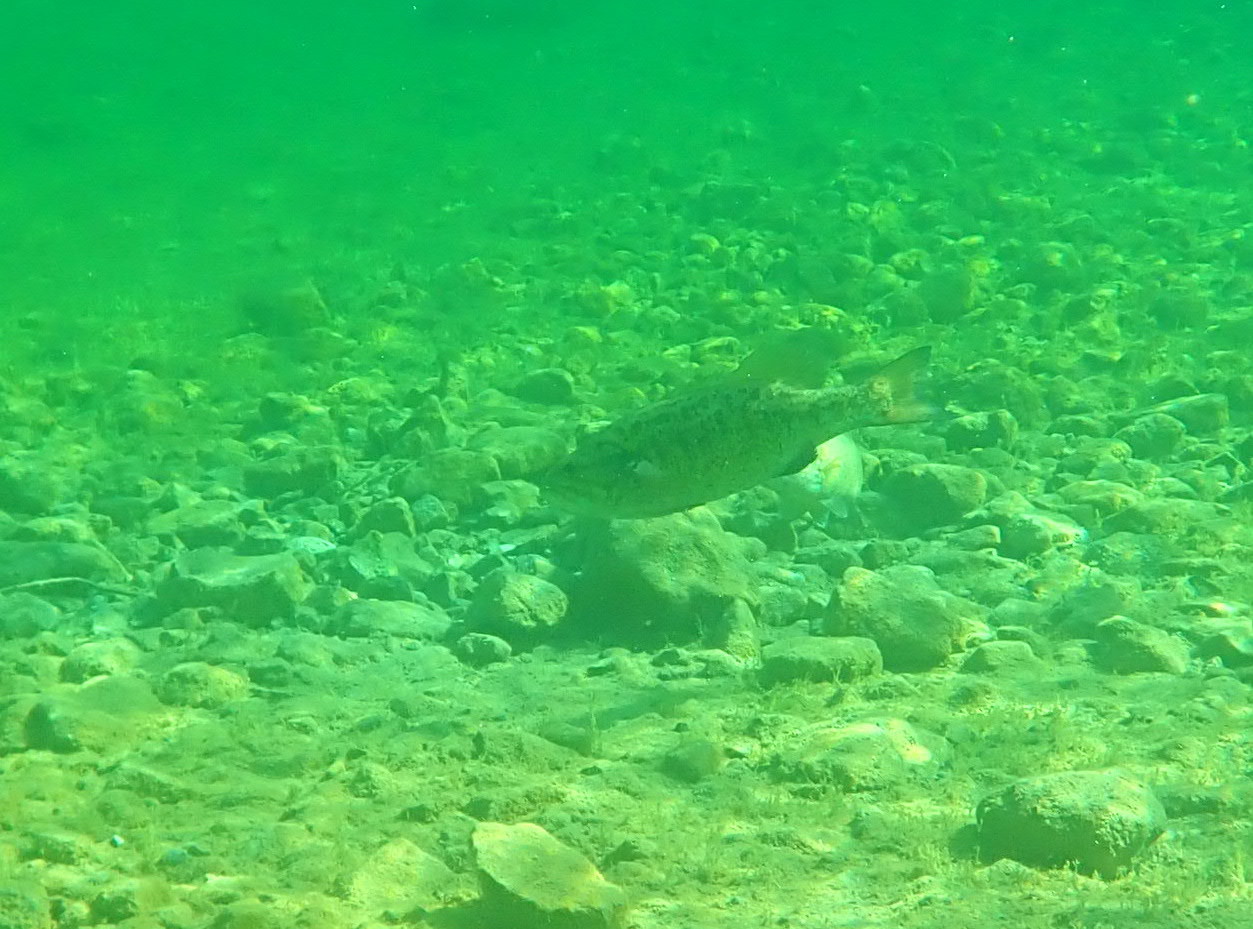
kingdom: Animalia
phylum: Chordata
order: Perciformes
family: Centrarchidae
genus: Micropterus
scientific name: Micropterus dolomieu
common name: Smallmouth bass
